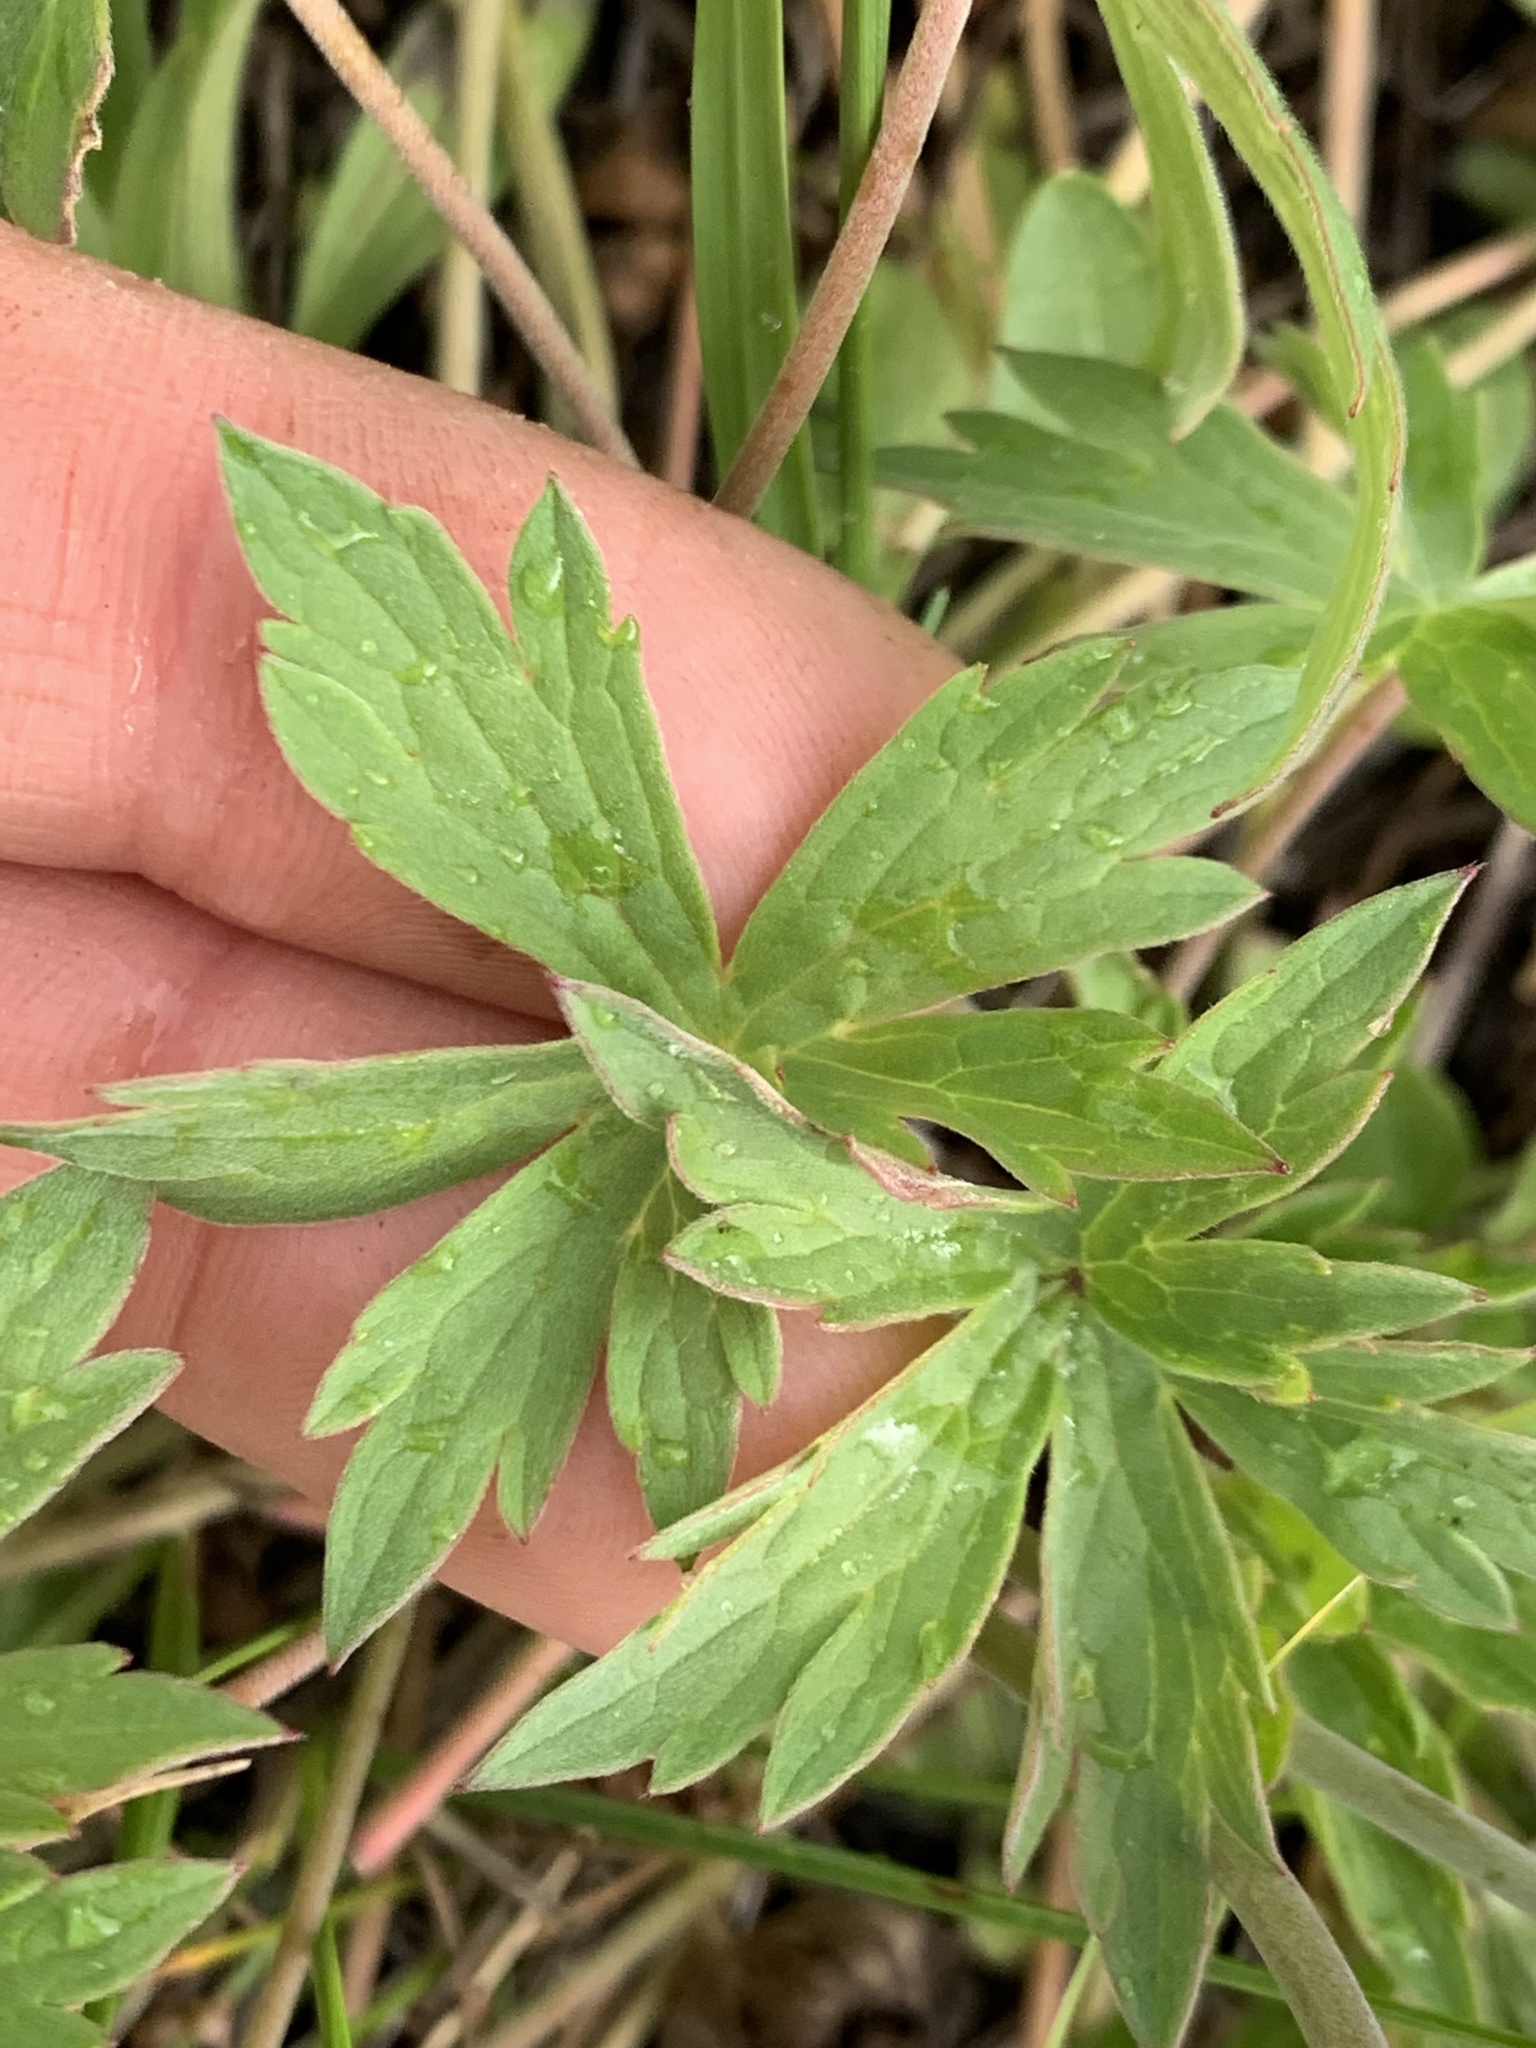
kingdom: Plantae
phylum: Tracheophyta
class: Magnoliopsida
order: Geraniales
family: Geraniaceae
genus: Geranium
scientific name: Geranium viscosissimum
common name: Purple geranium
